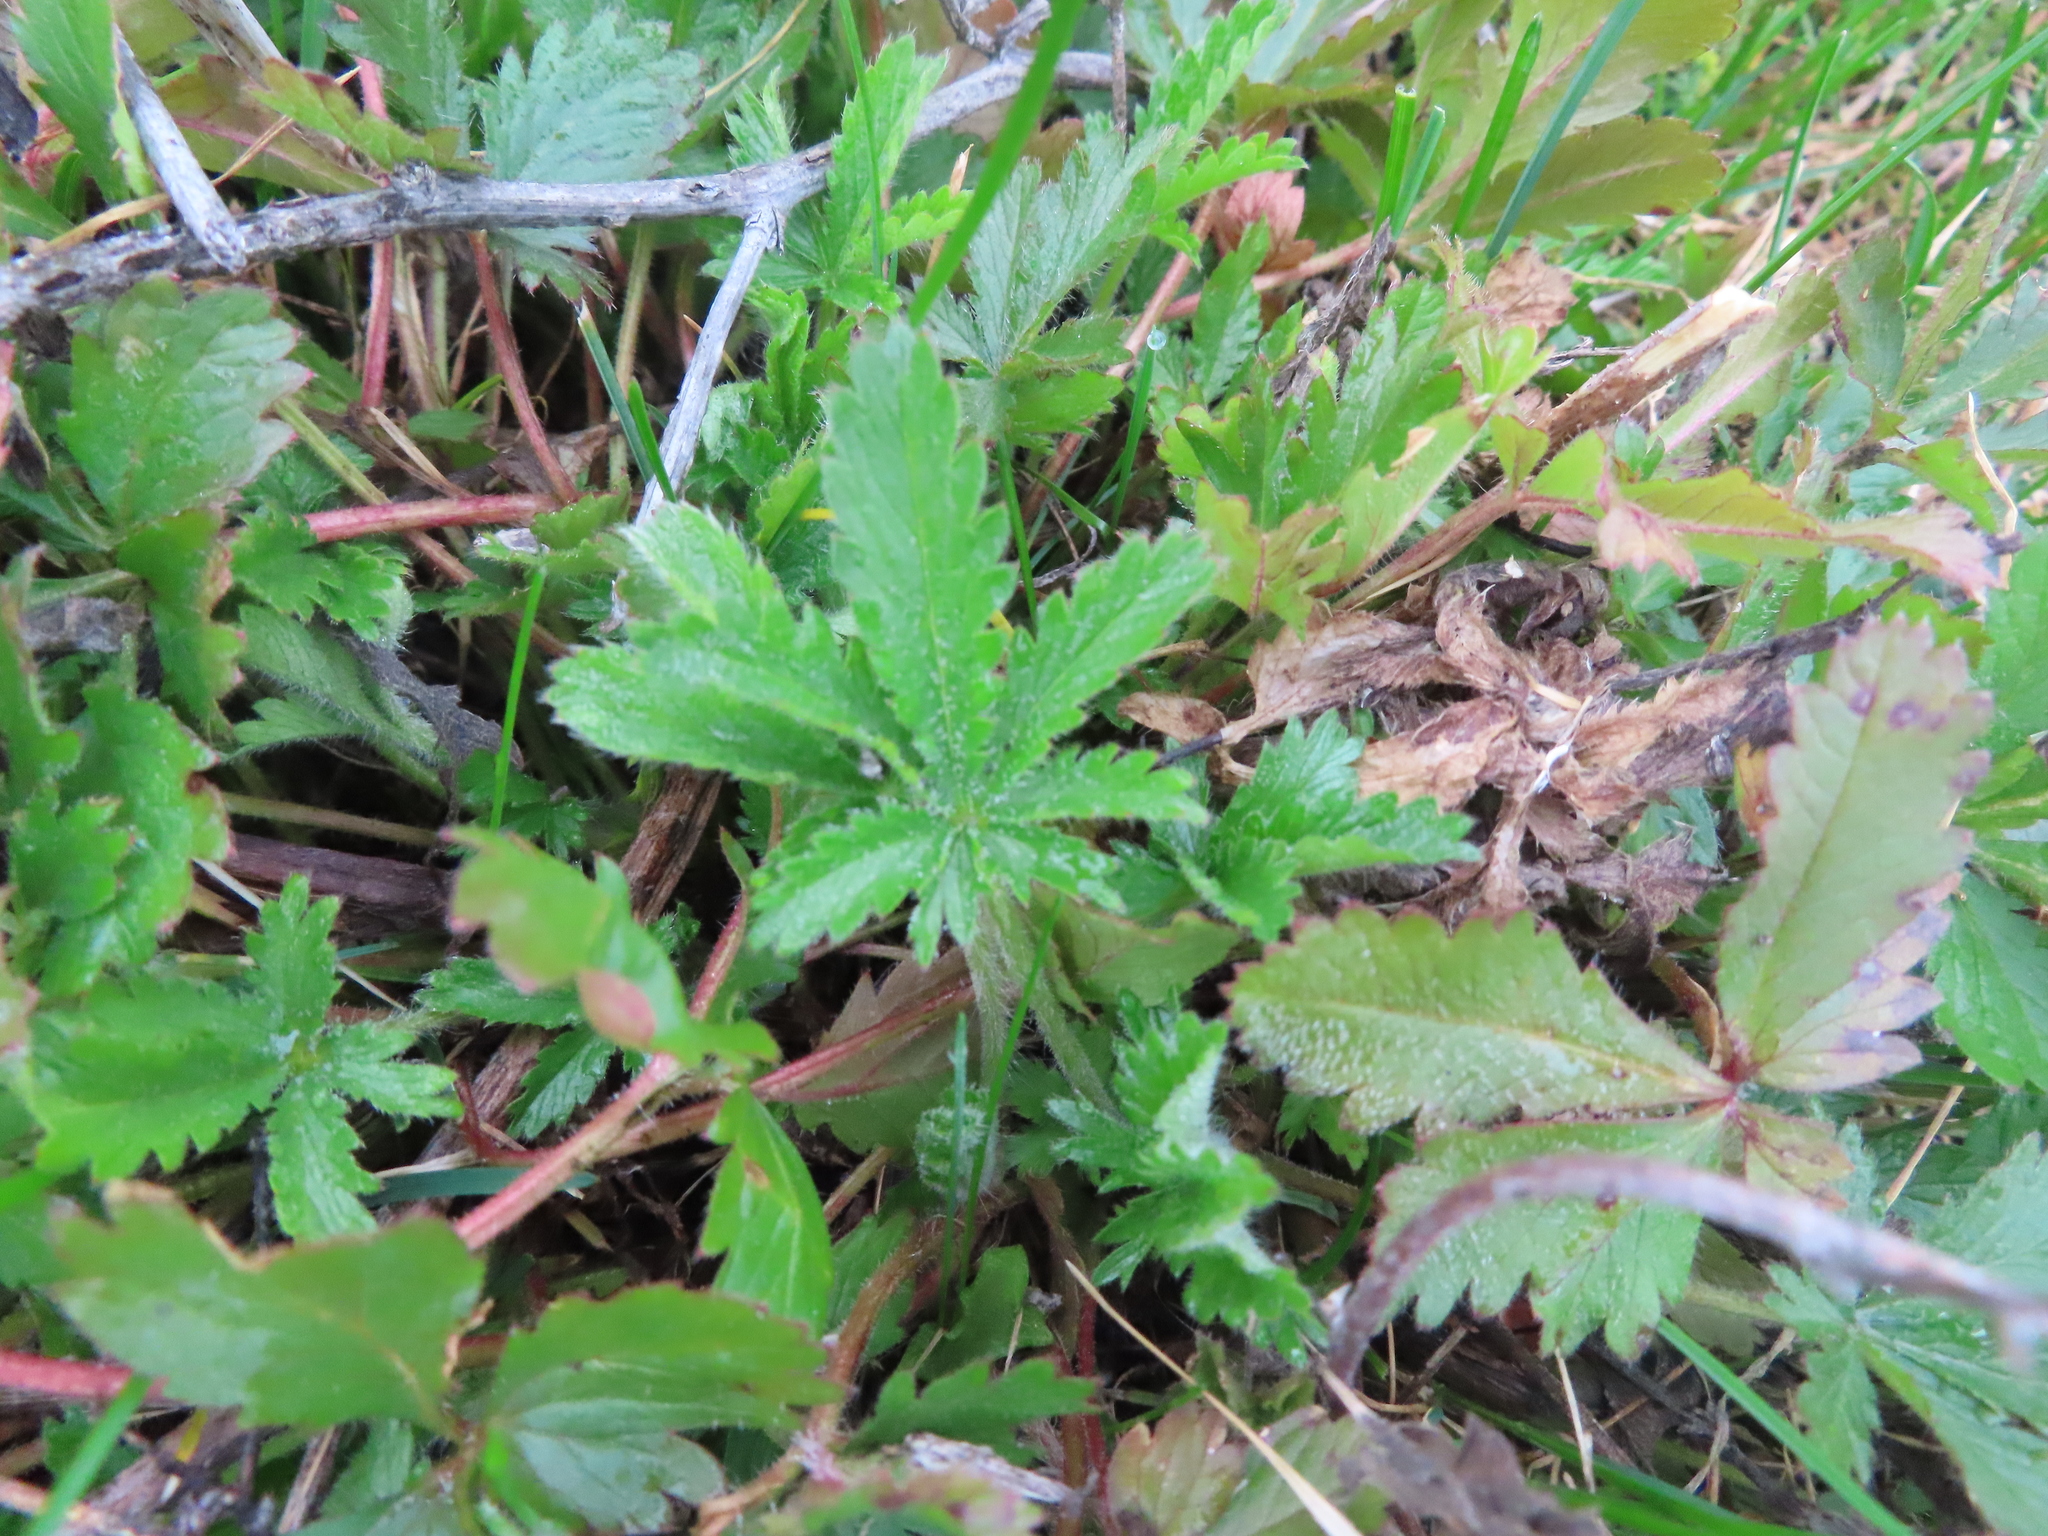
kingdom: Plantae
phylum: Tracheophyta
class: Magnoliopsida
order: Rosales
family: Rosaceae
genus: Potentilla
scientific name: Potentilla recta
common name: Sulphur cinquefoil
